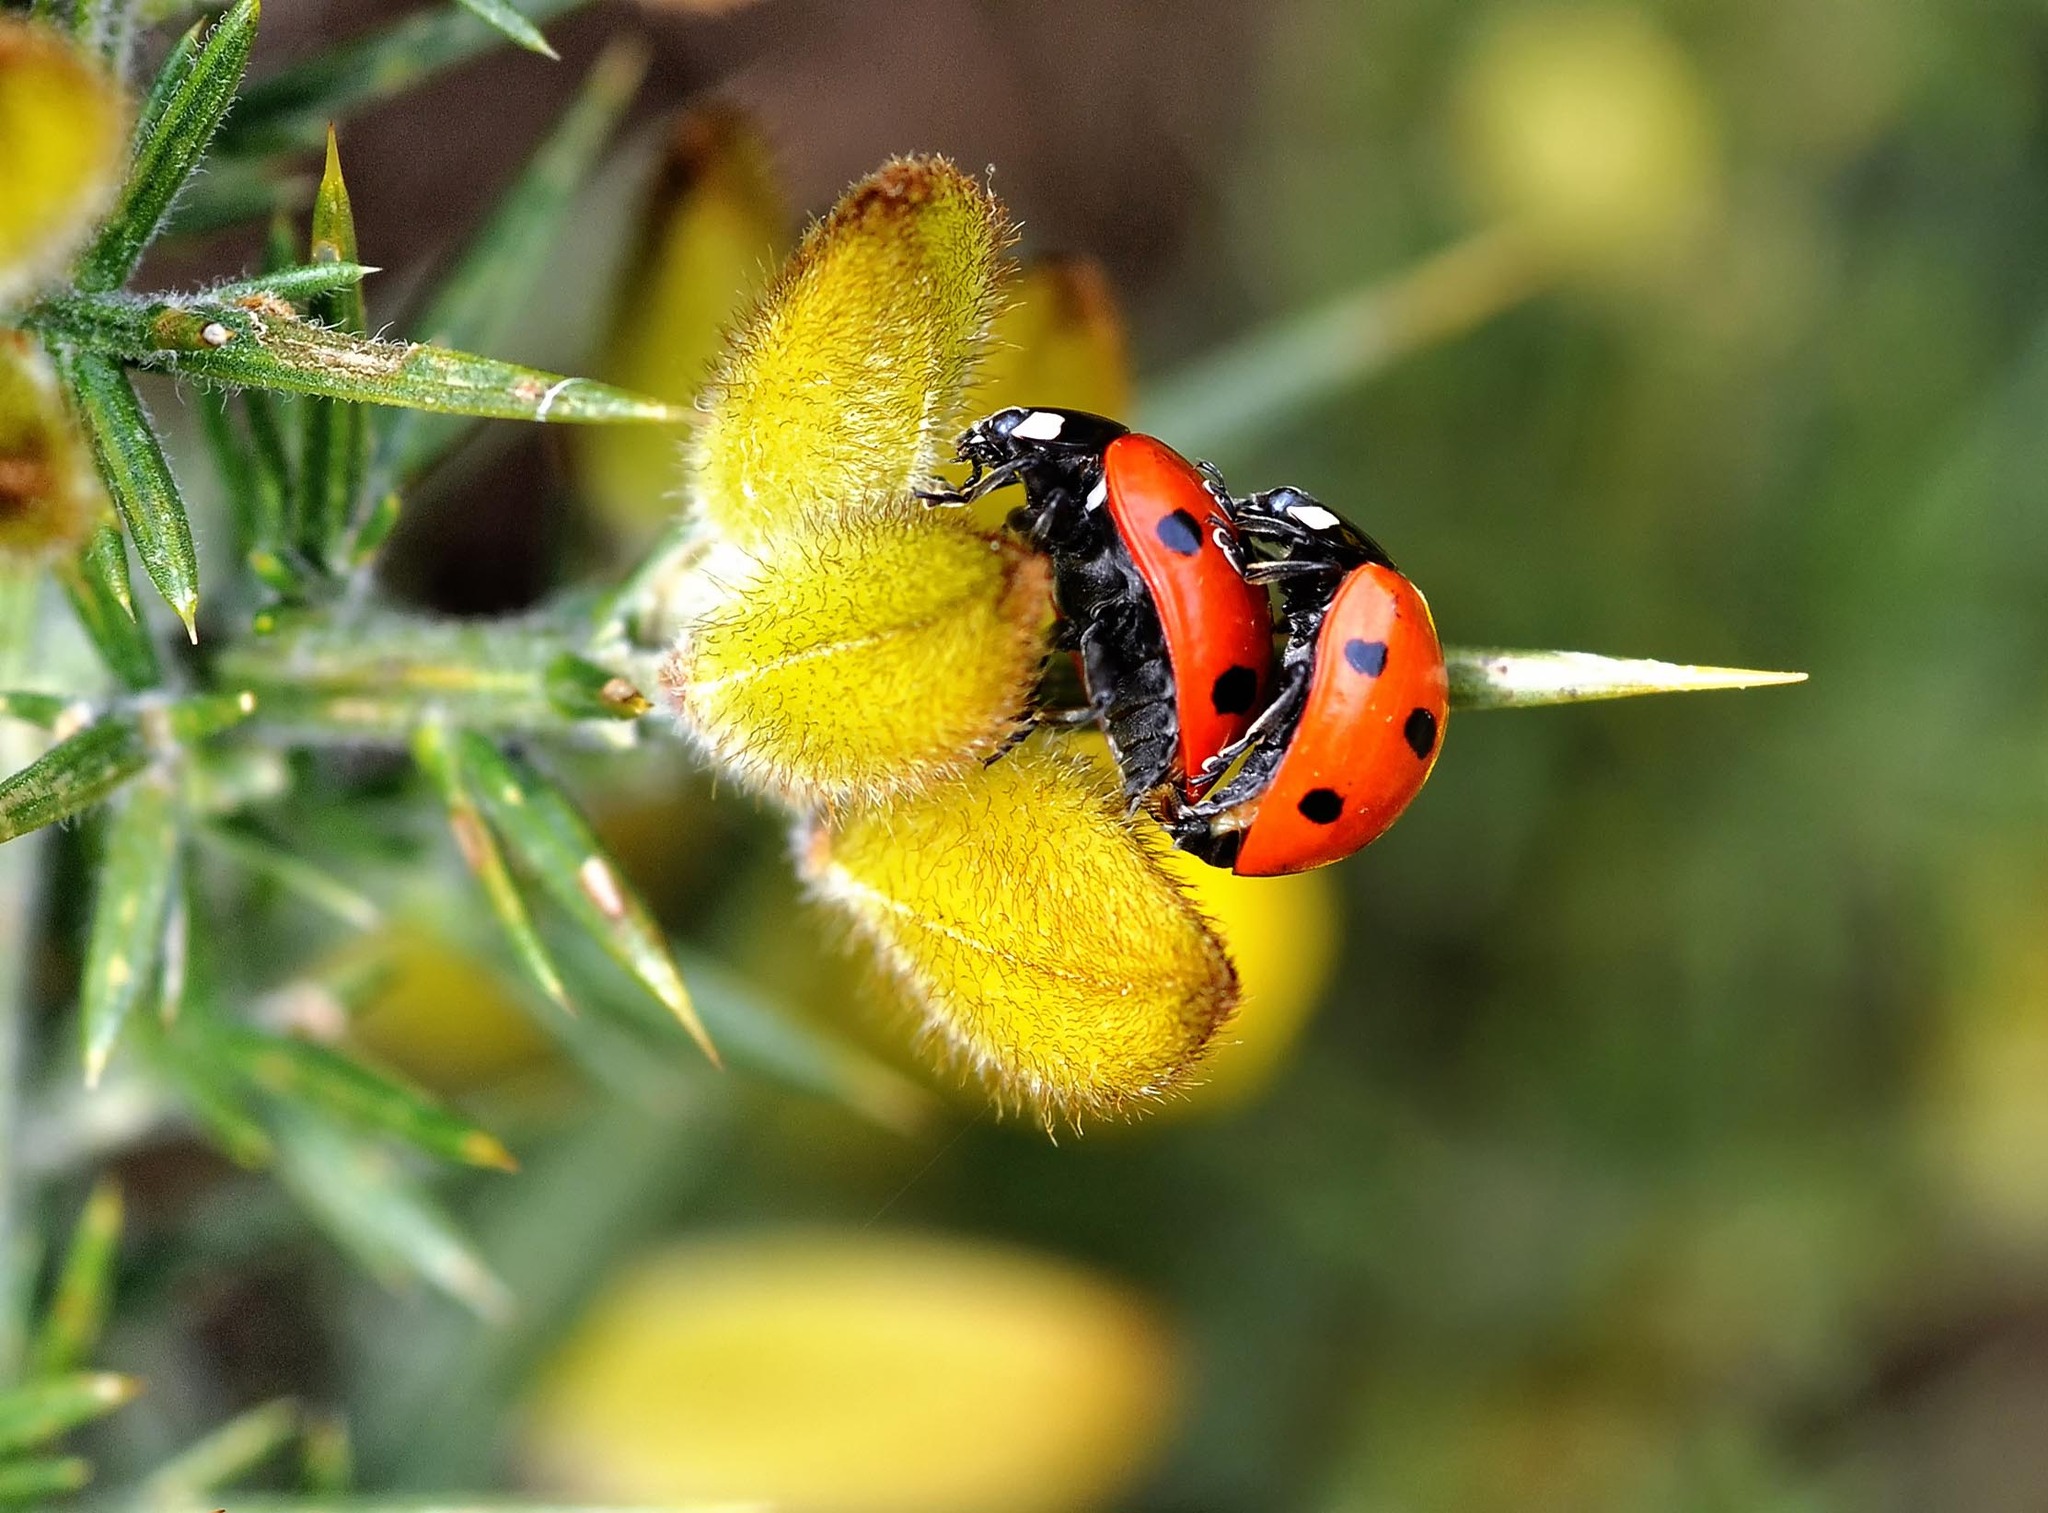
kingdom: Animalia
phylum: Arthropoda
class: Insecta
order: Coleoptera
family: Coccinellidae
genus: Coccinella
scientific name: Coccinella septempunctata
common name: Sevenspotted lady beetle
